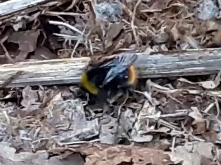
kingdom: Animalia
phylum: Arthropoda
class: Insecta
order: Hymenoptera
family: Apidae
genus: Bombus
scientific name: Bombus pratorum
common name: Early humble-bee
